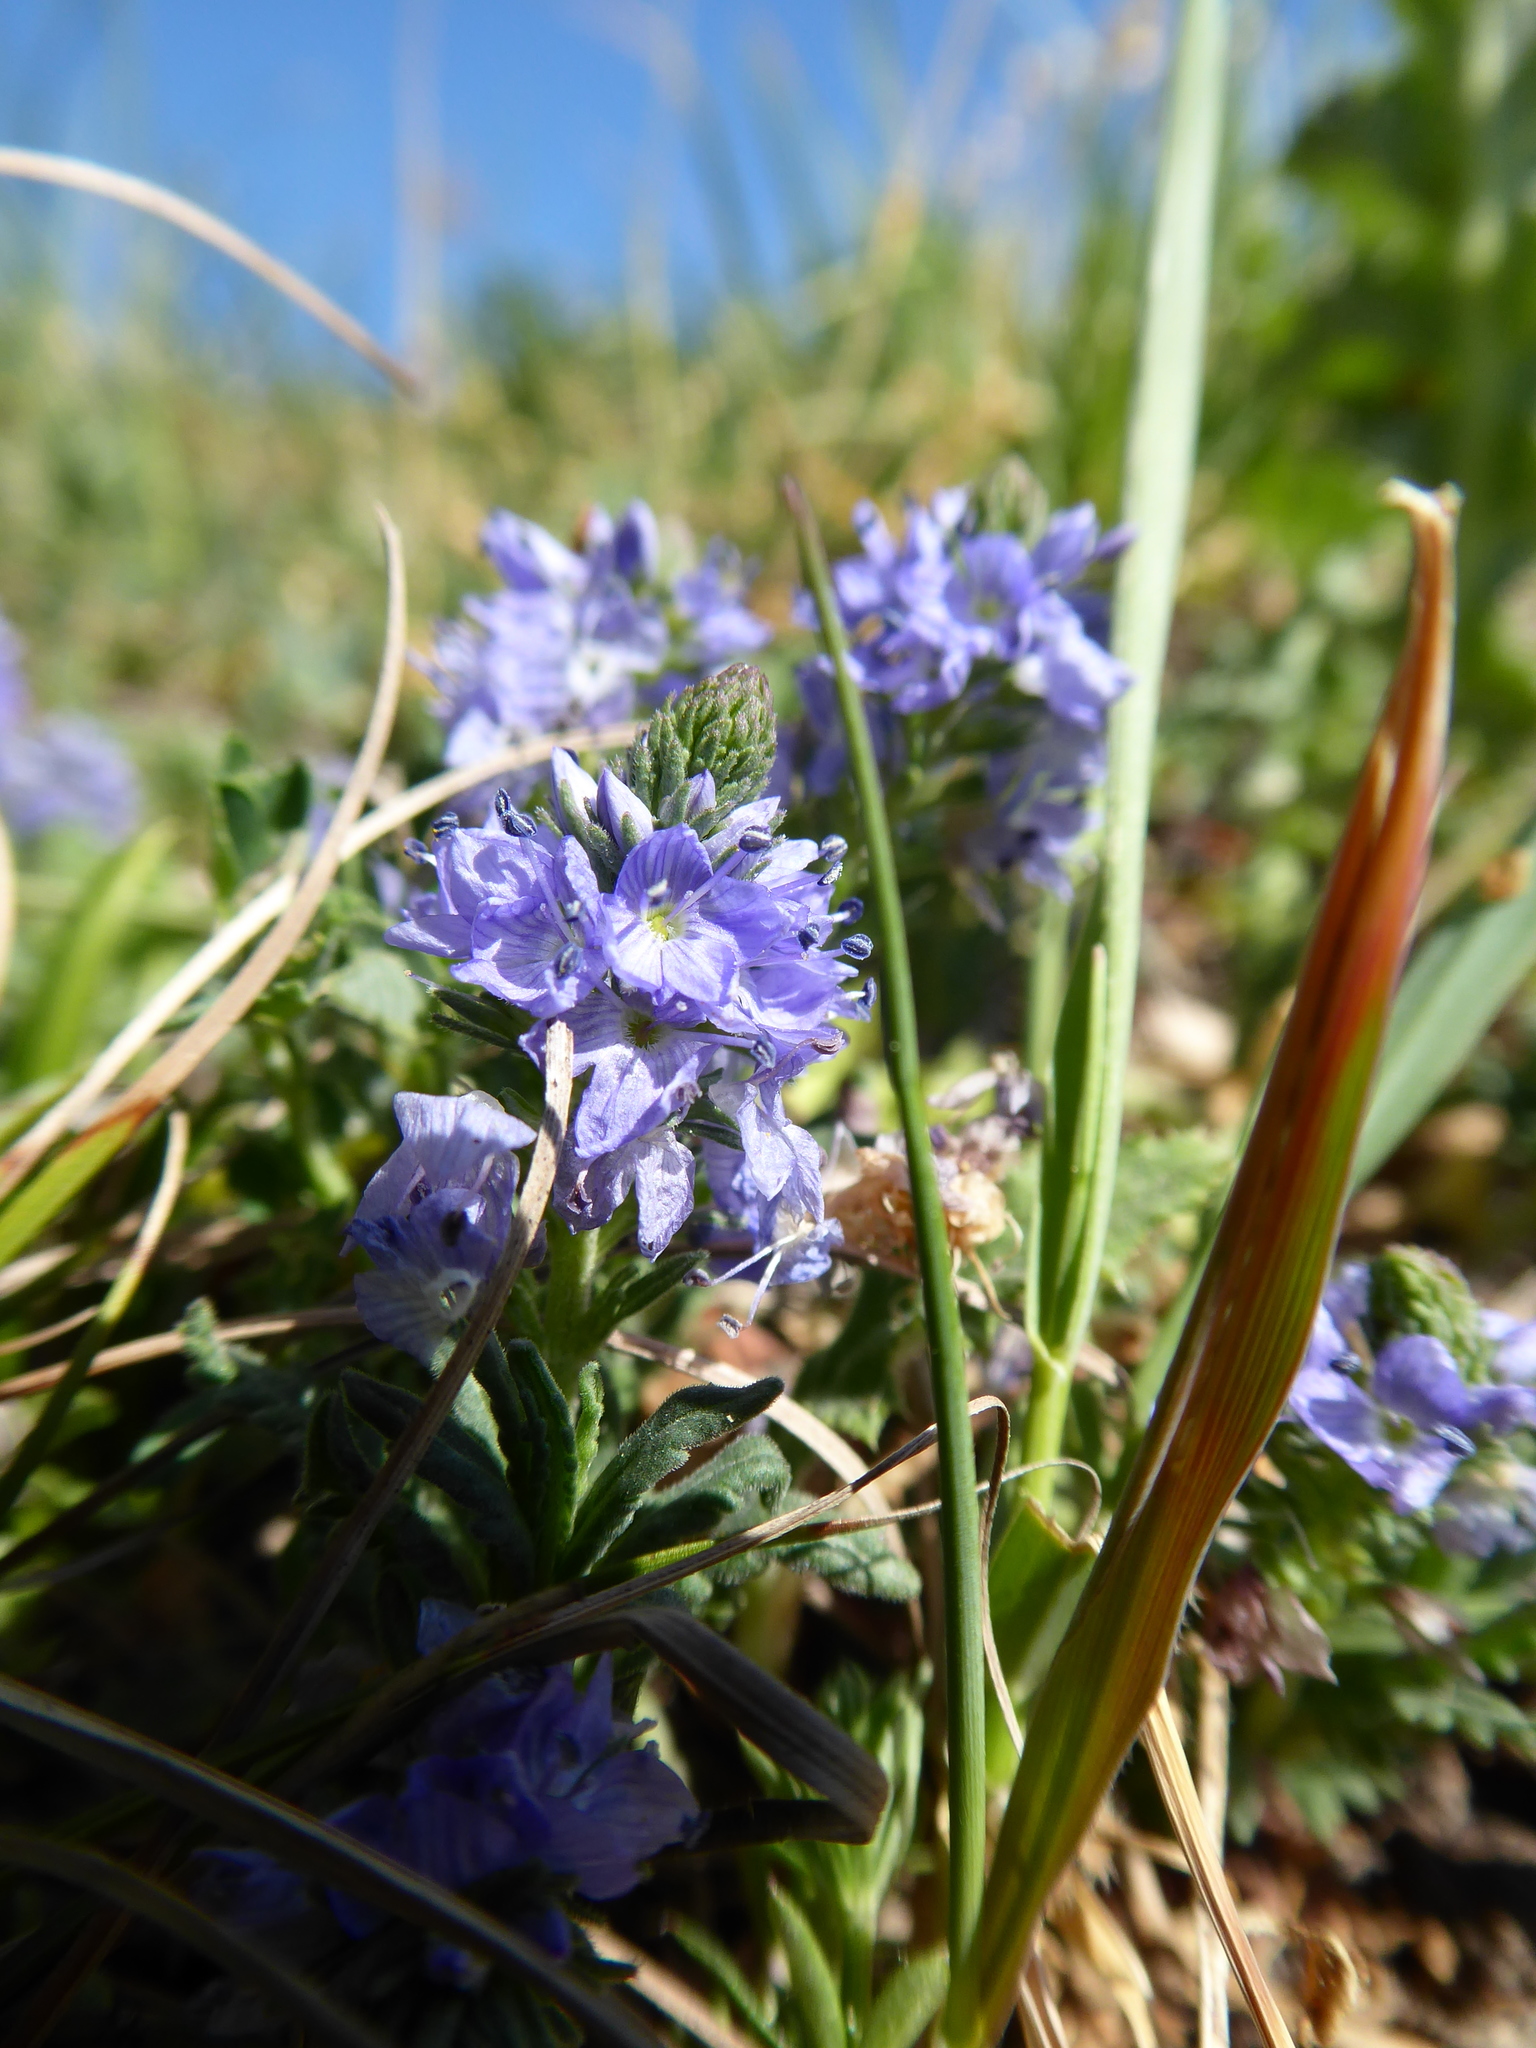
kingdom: Plantae
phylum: Tracheophyta
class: Magnoliopsida
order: Lamiales
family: Plantaginaceae
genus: Veronica
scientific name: Veronica prostrata
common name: Prostrate speedwell
